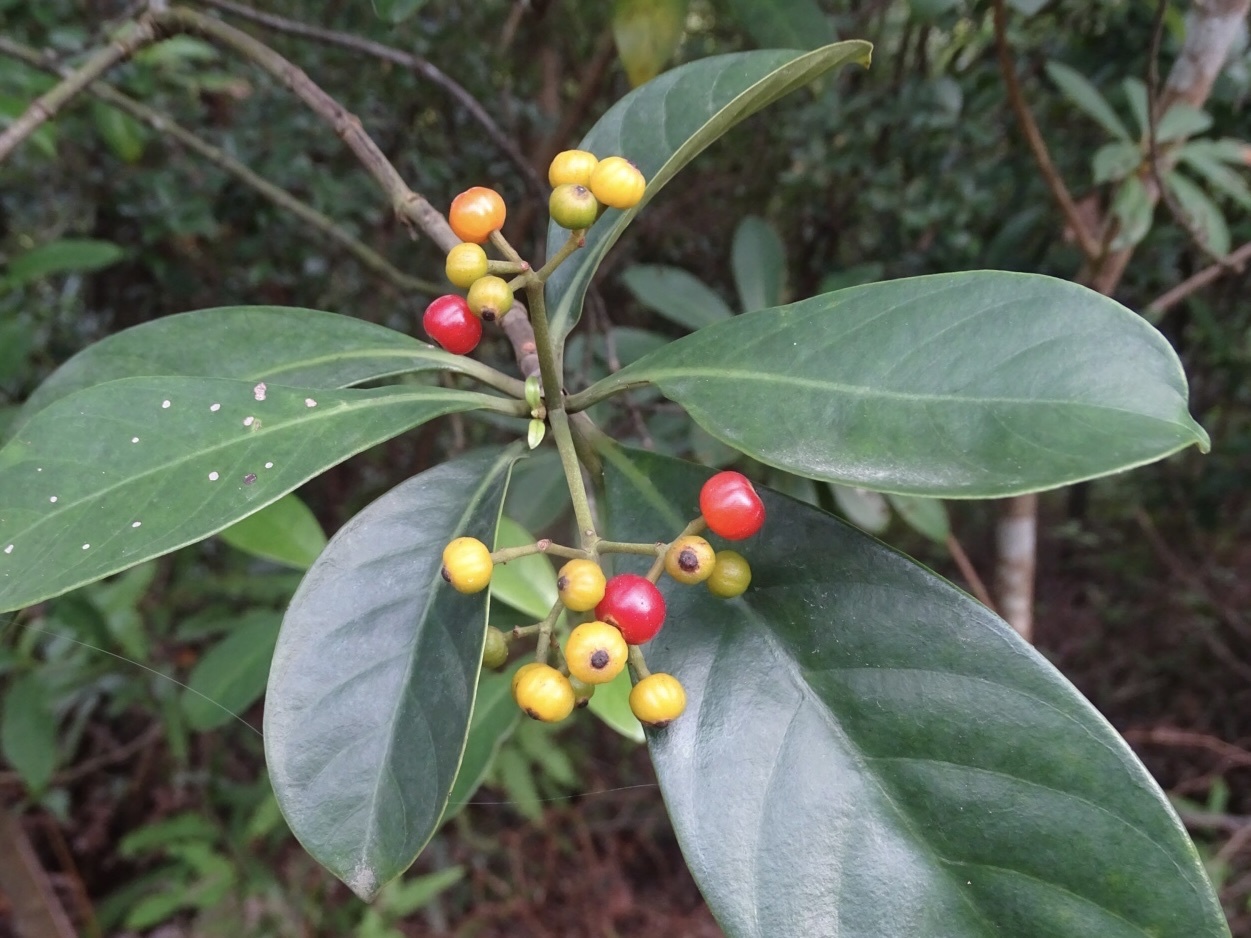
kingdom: Plantae
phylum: Tracheophyta
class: Magnoliopsida
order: Gentianales
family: Rubiaceae
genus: Psychotria
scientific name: Psychotria asiatica
